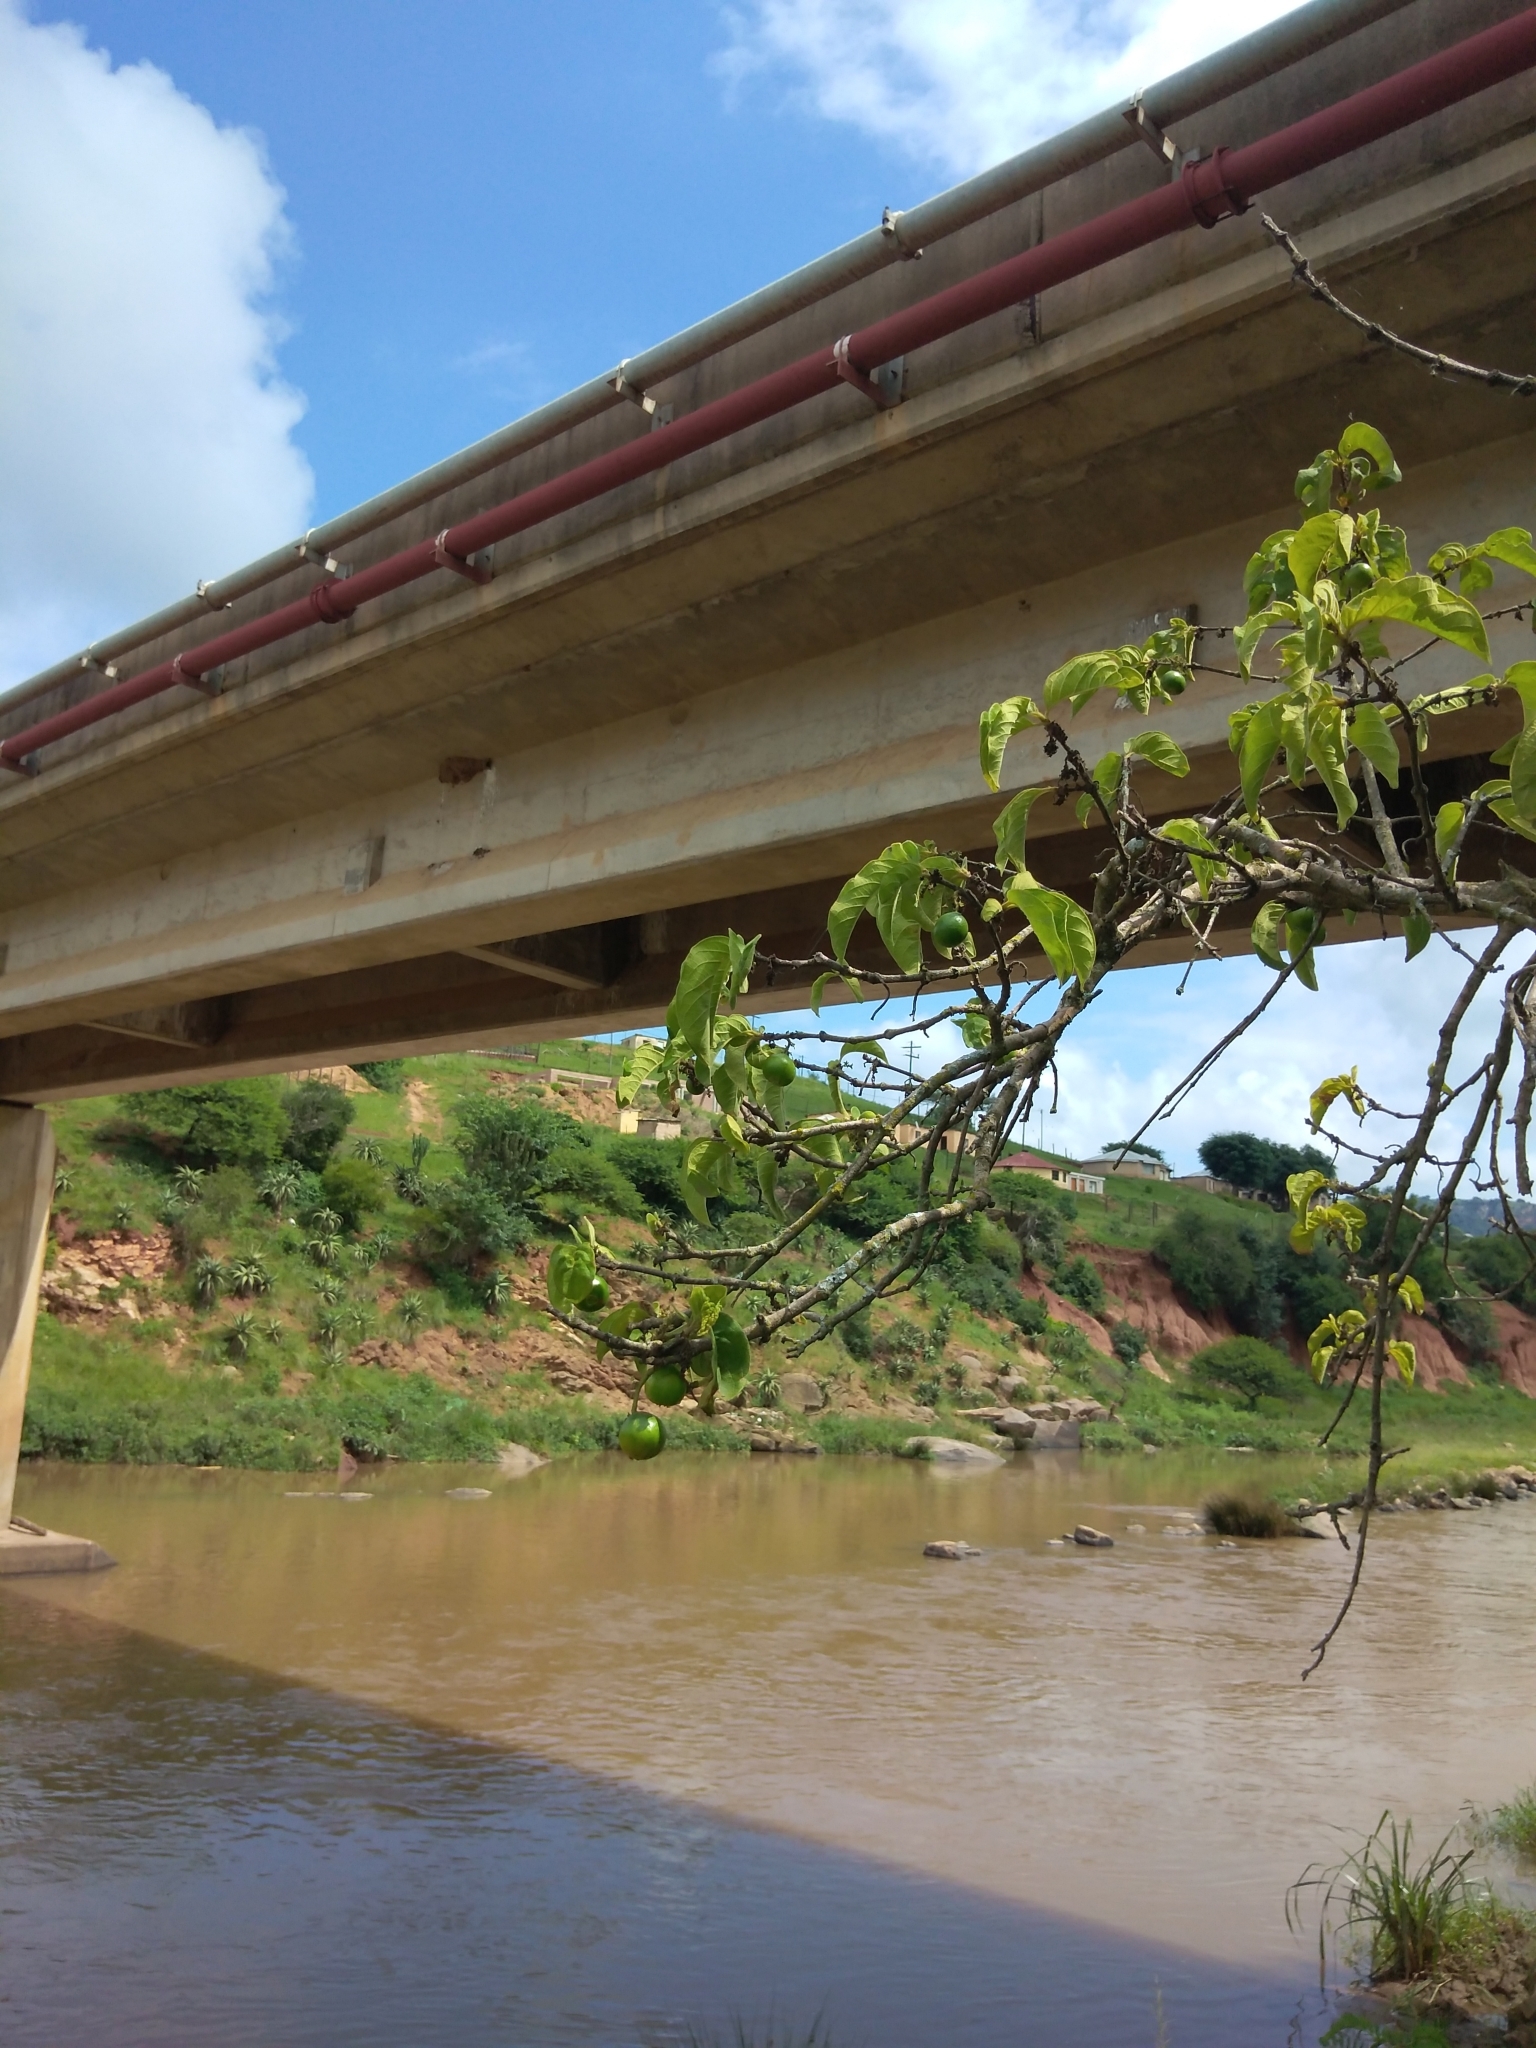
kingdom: Plantae
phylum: Tracheophyta
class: Magnoliopsida
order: Gentianales
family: Rubiaceae
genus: Vangueria
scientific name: Vangueria infausta
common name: Medlar
